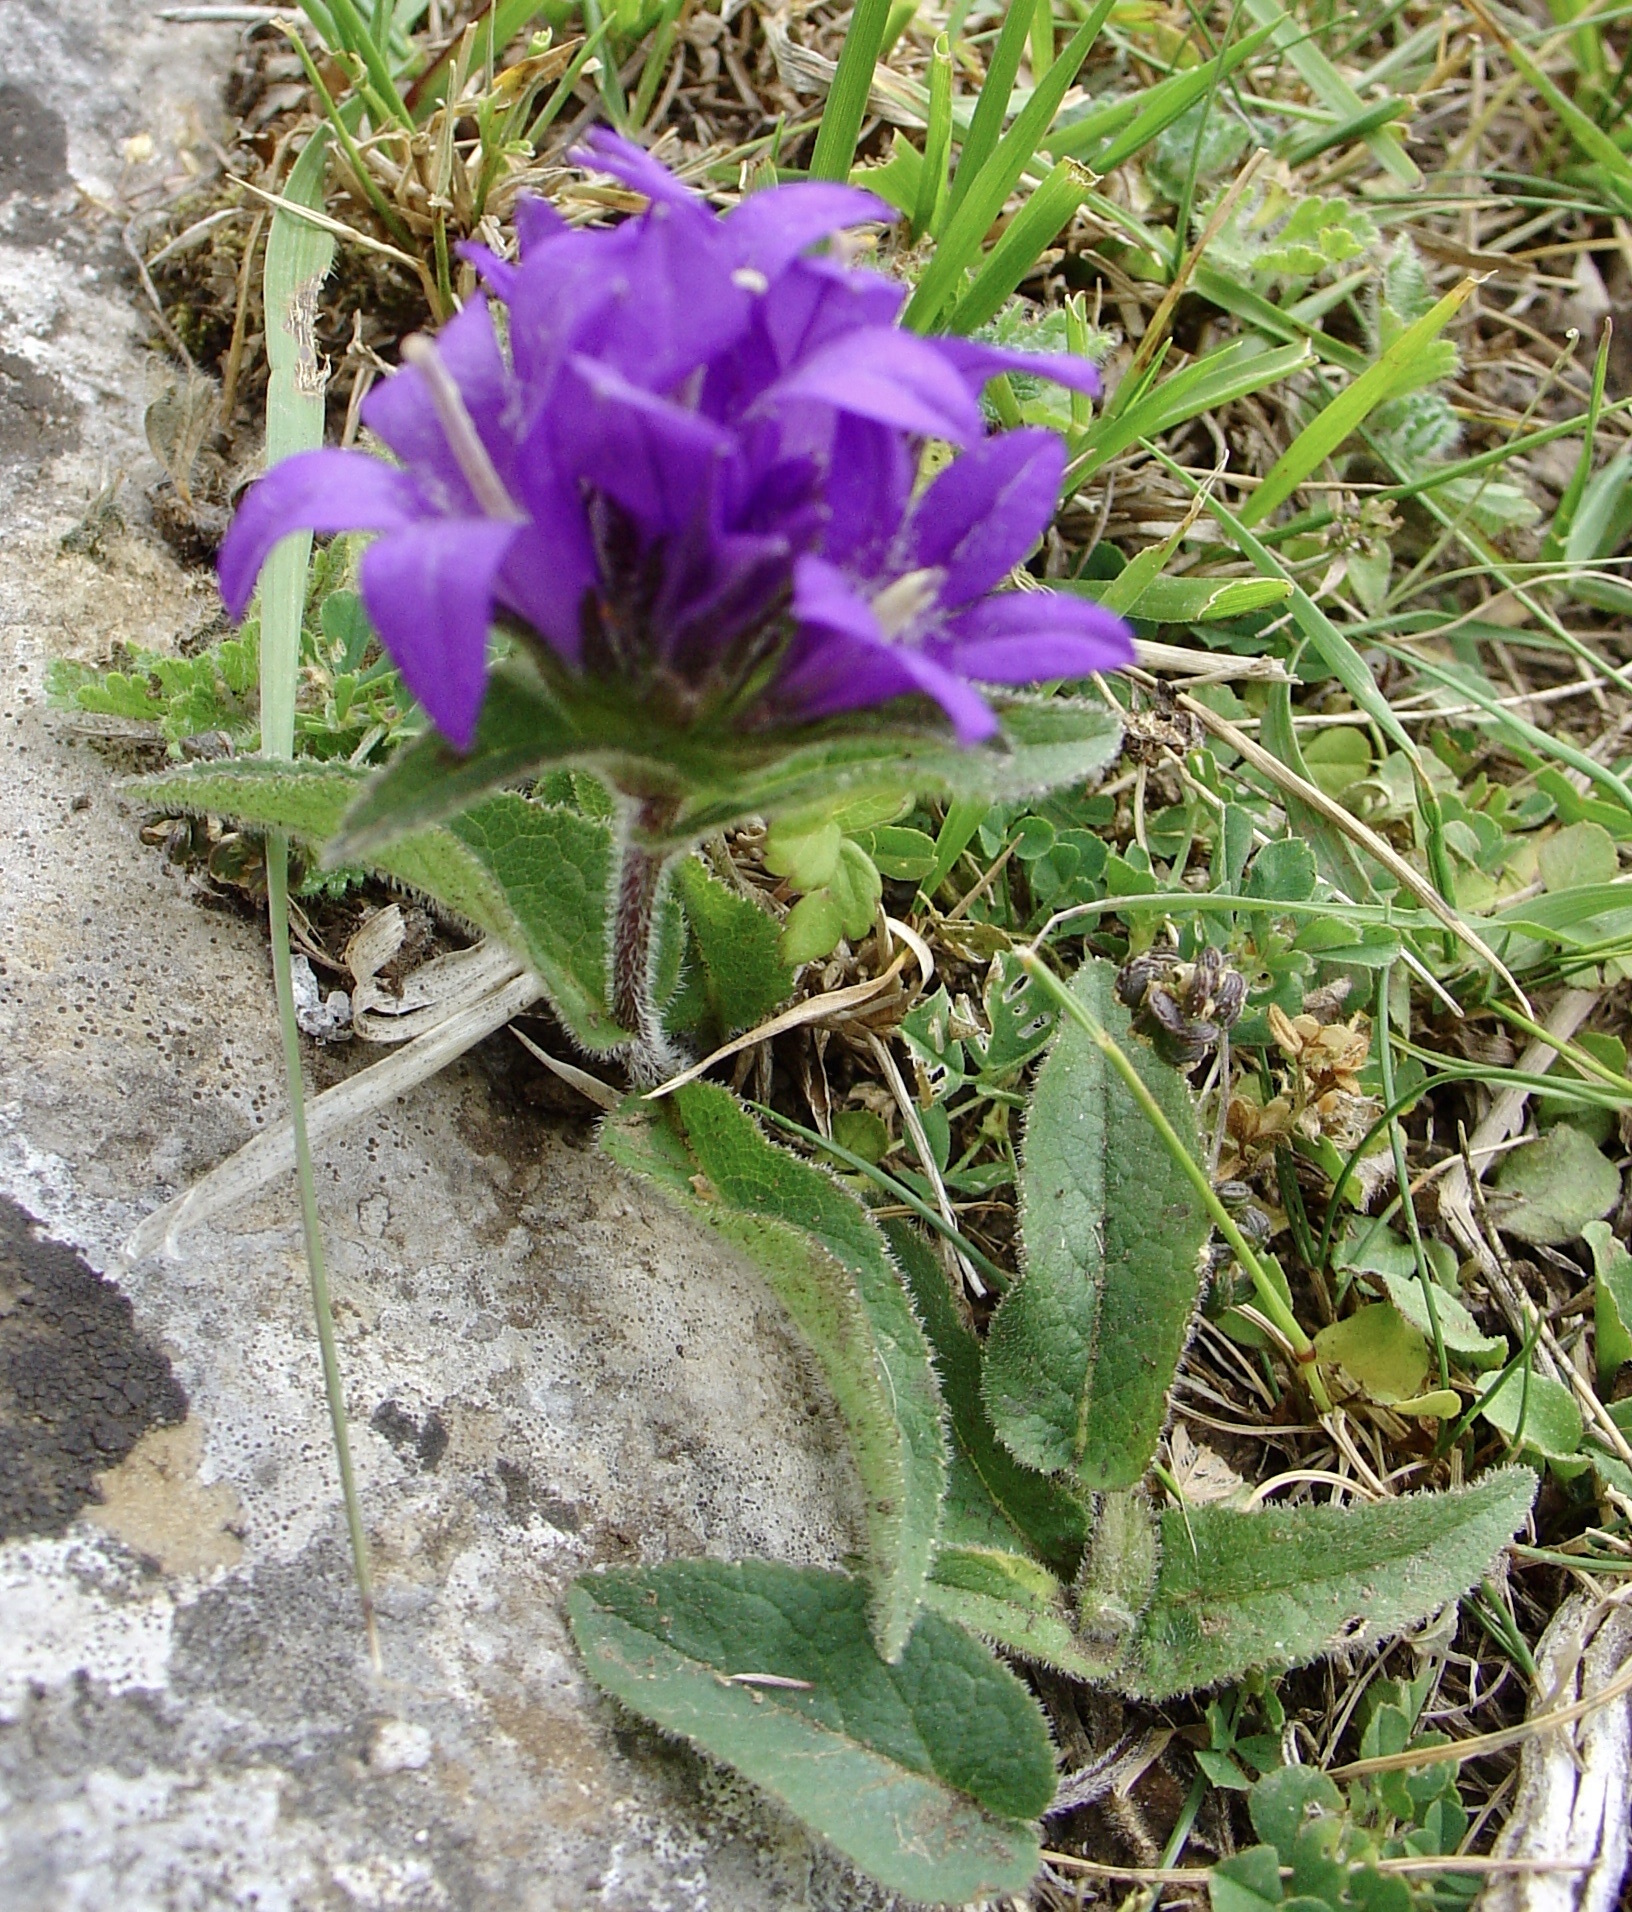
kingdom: Plantae
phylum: Tracheophyta
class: Magnoliopsida
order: Asterales
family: Campanulaceae
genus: Campanula
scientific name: Campanula glomerata
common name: Clustered bellflower
